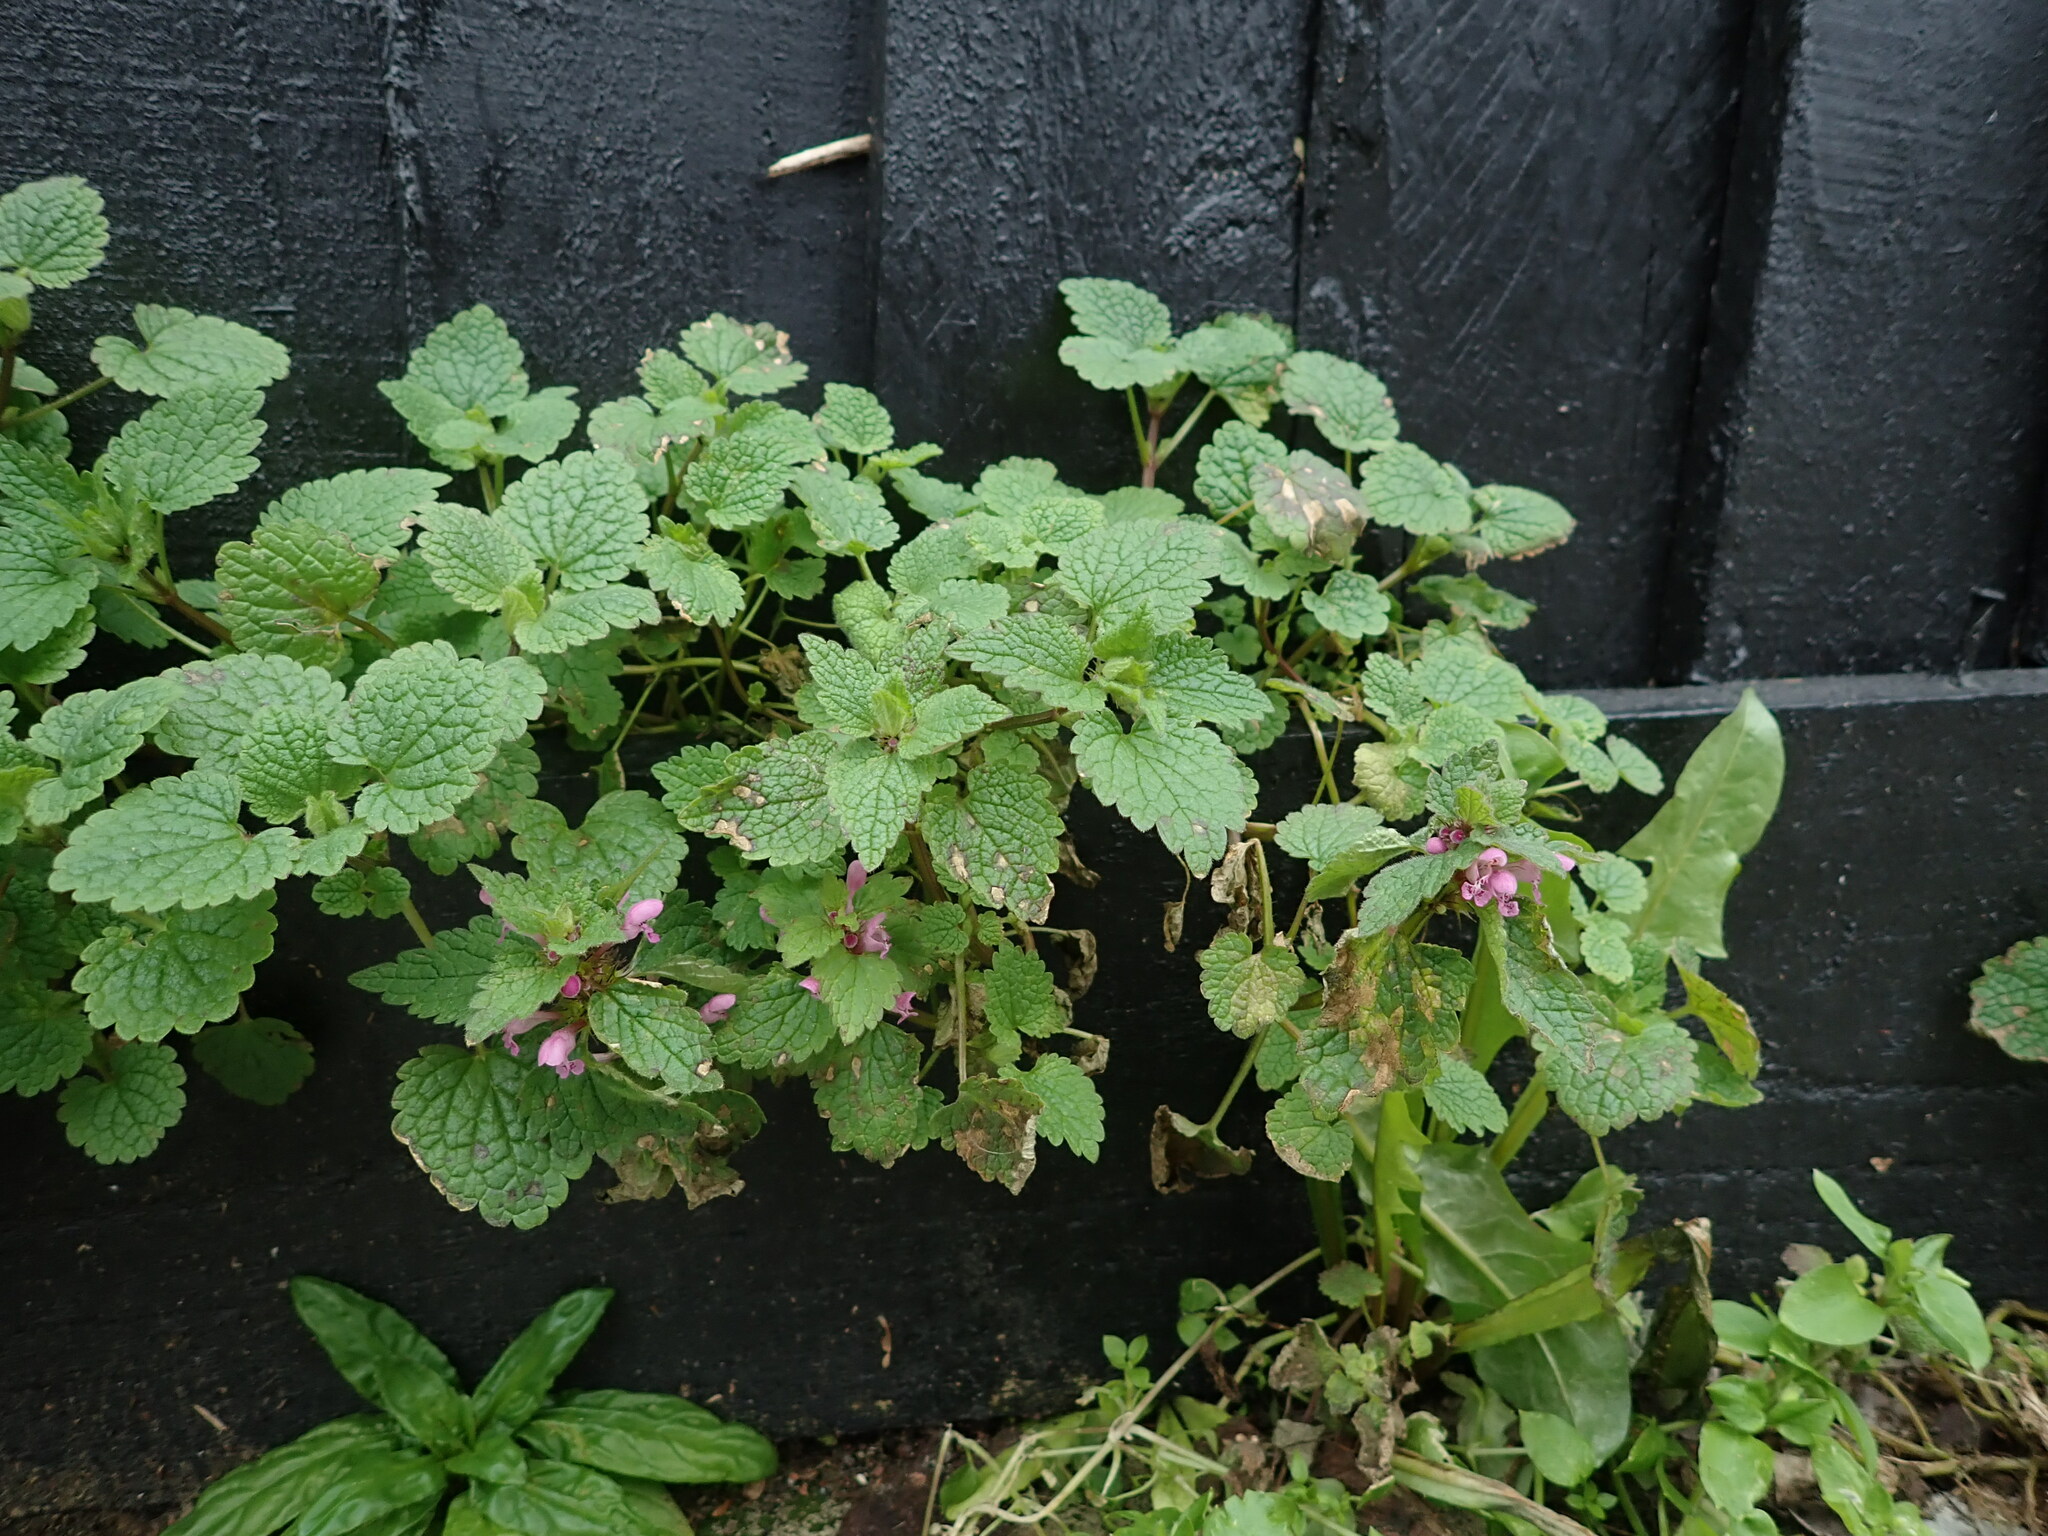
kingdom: Plantae
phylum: Tracheophyta
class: Magnoliopsida
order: Lamiales
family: Lamiaceae
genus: Lamium
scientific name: Lamium purpureum
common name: Red dead-nettle
